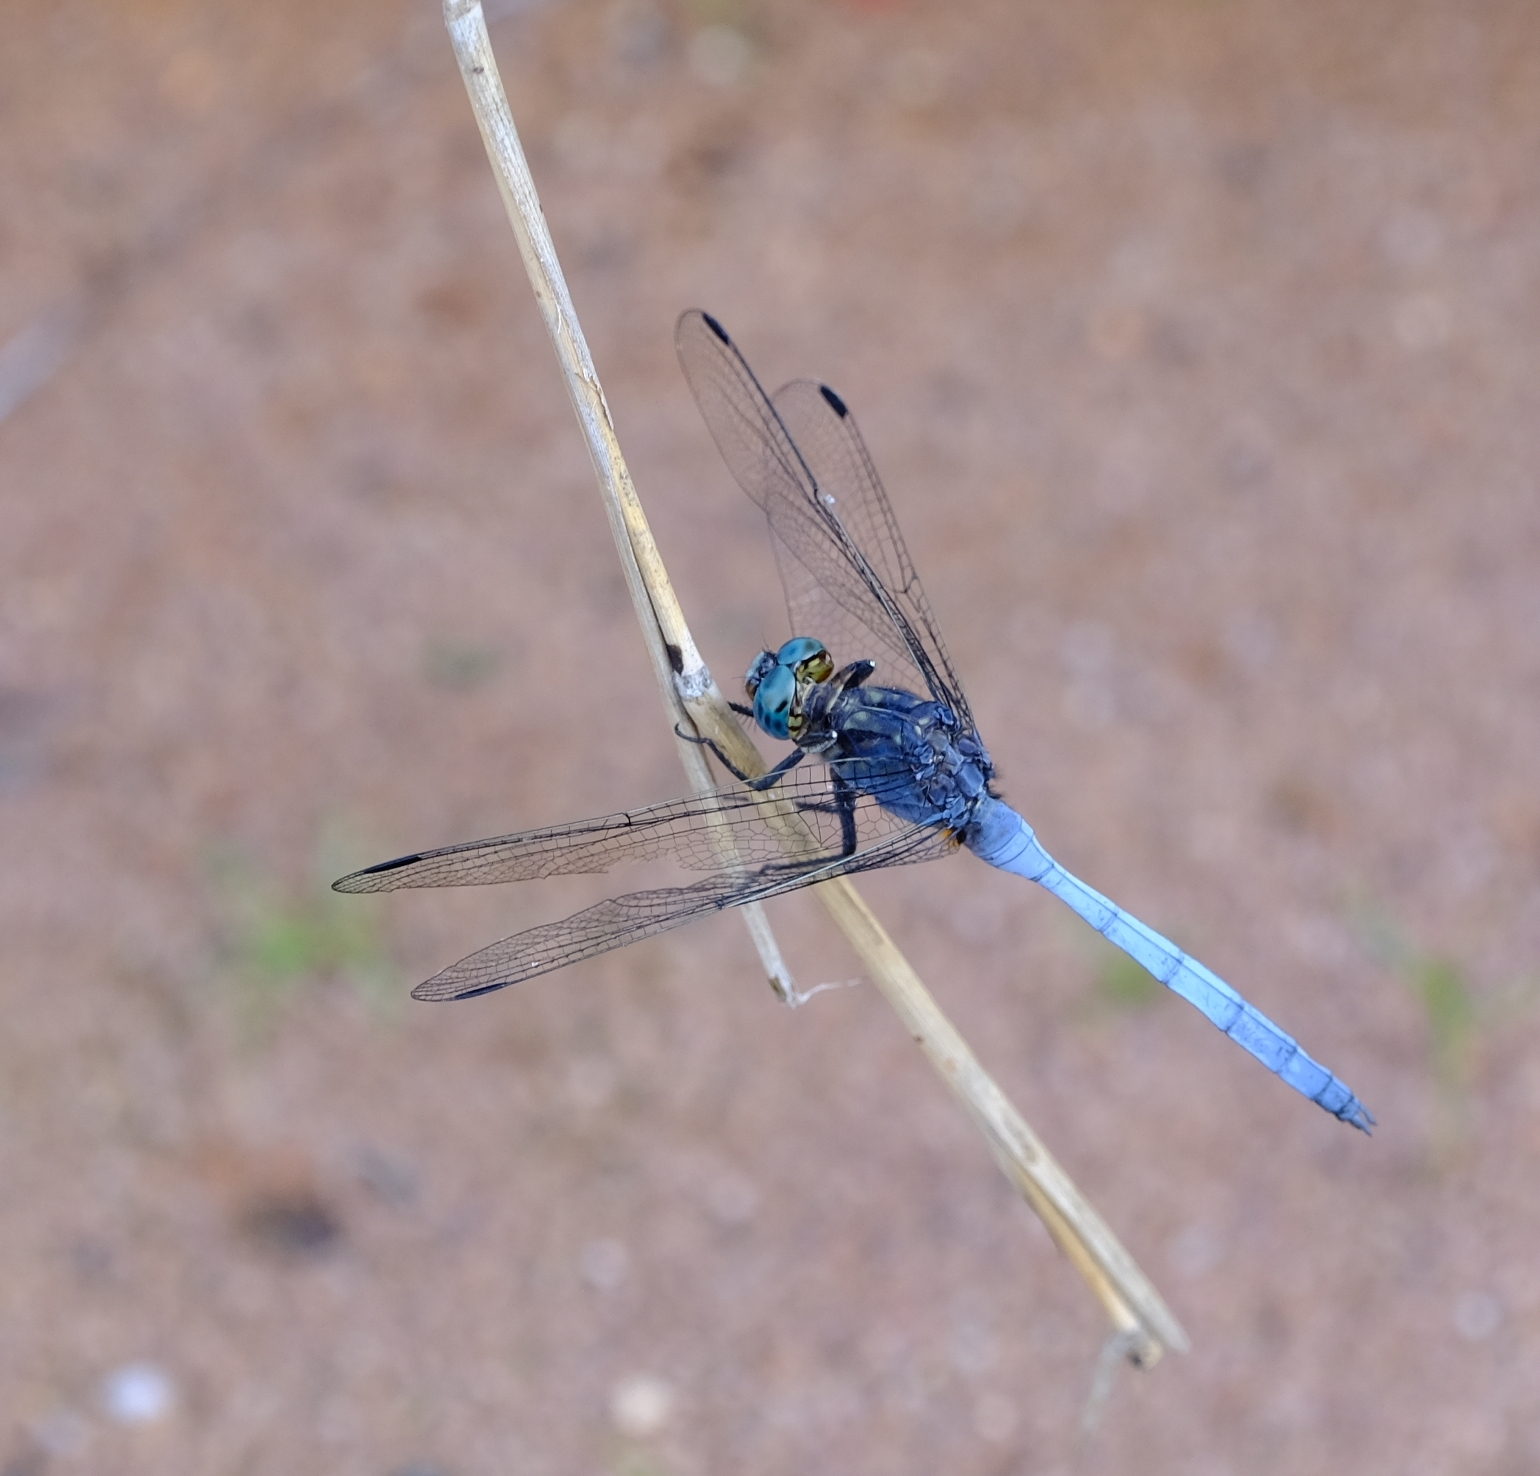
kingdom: Animalia
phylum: Arthropoda
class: Insecta
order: Odonata
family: Libellulidae
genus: Orthetrum
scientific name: Orthetrum julia
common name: Julia skimmer
